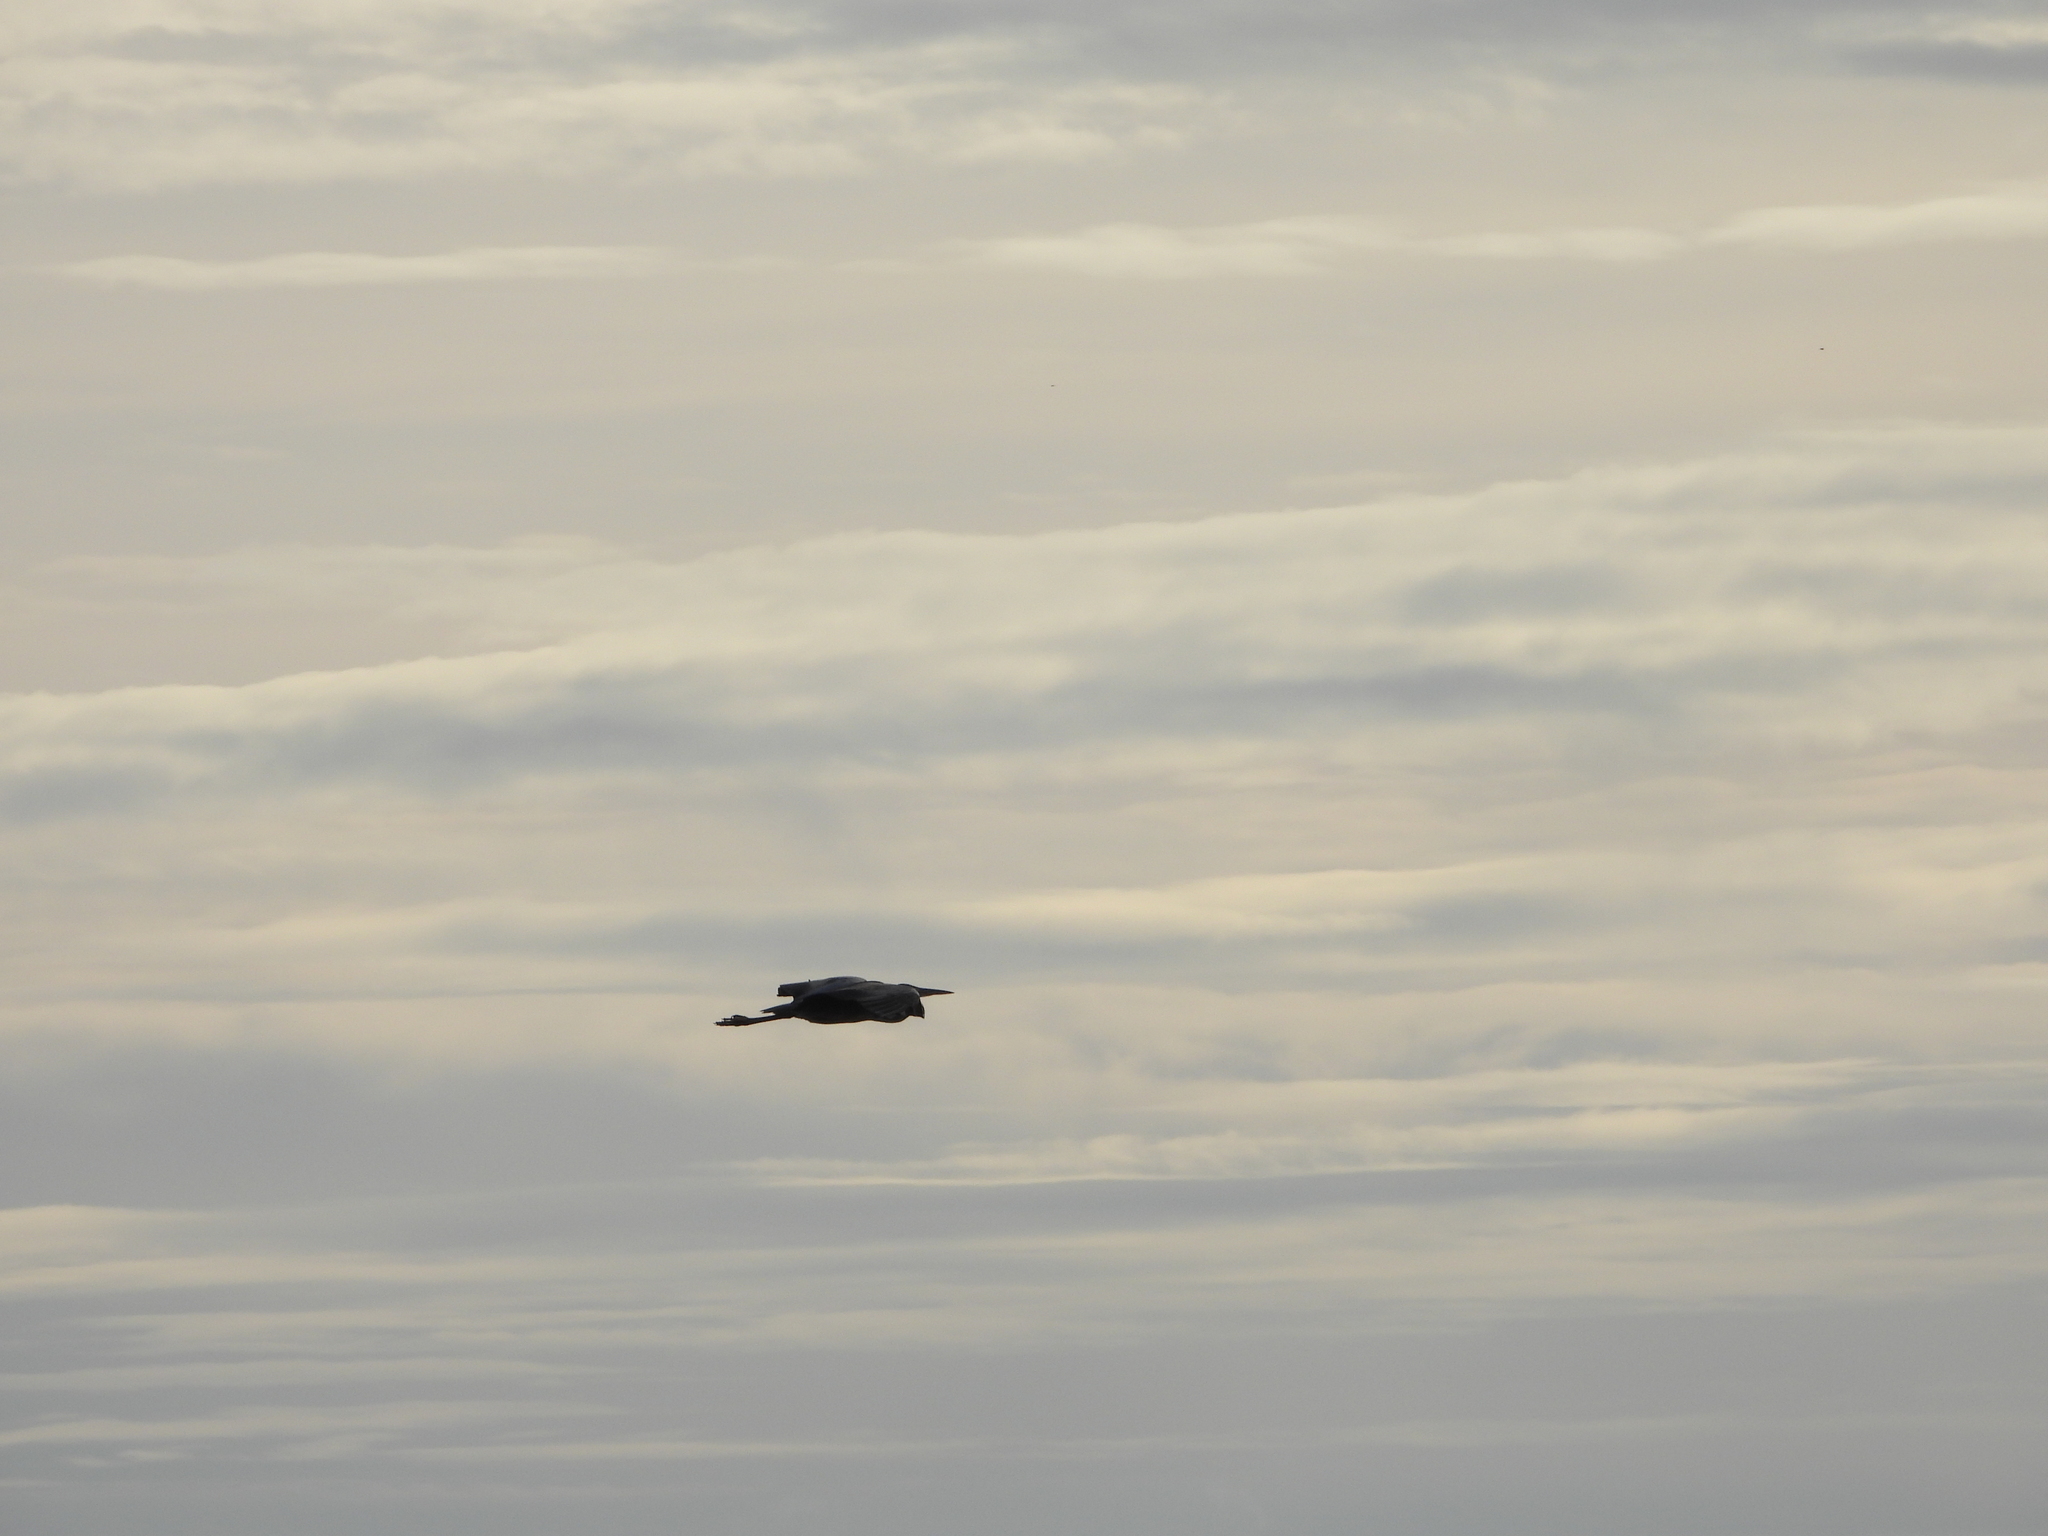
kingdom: Animalia
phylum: Chordata
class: Aves
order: Pelecaniformes
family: Ardeidae
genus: Ardea
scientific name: Ardea cinerea
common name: Grey heron
